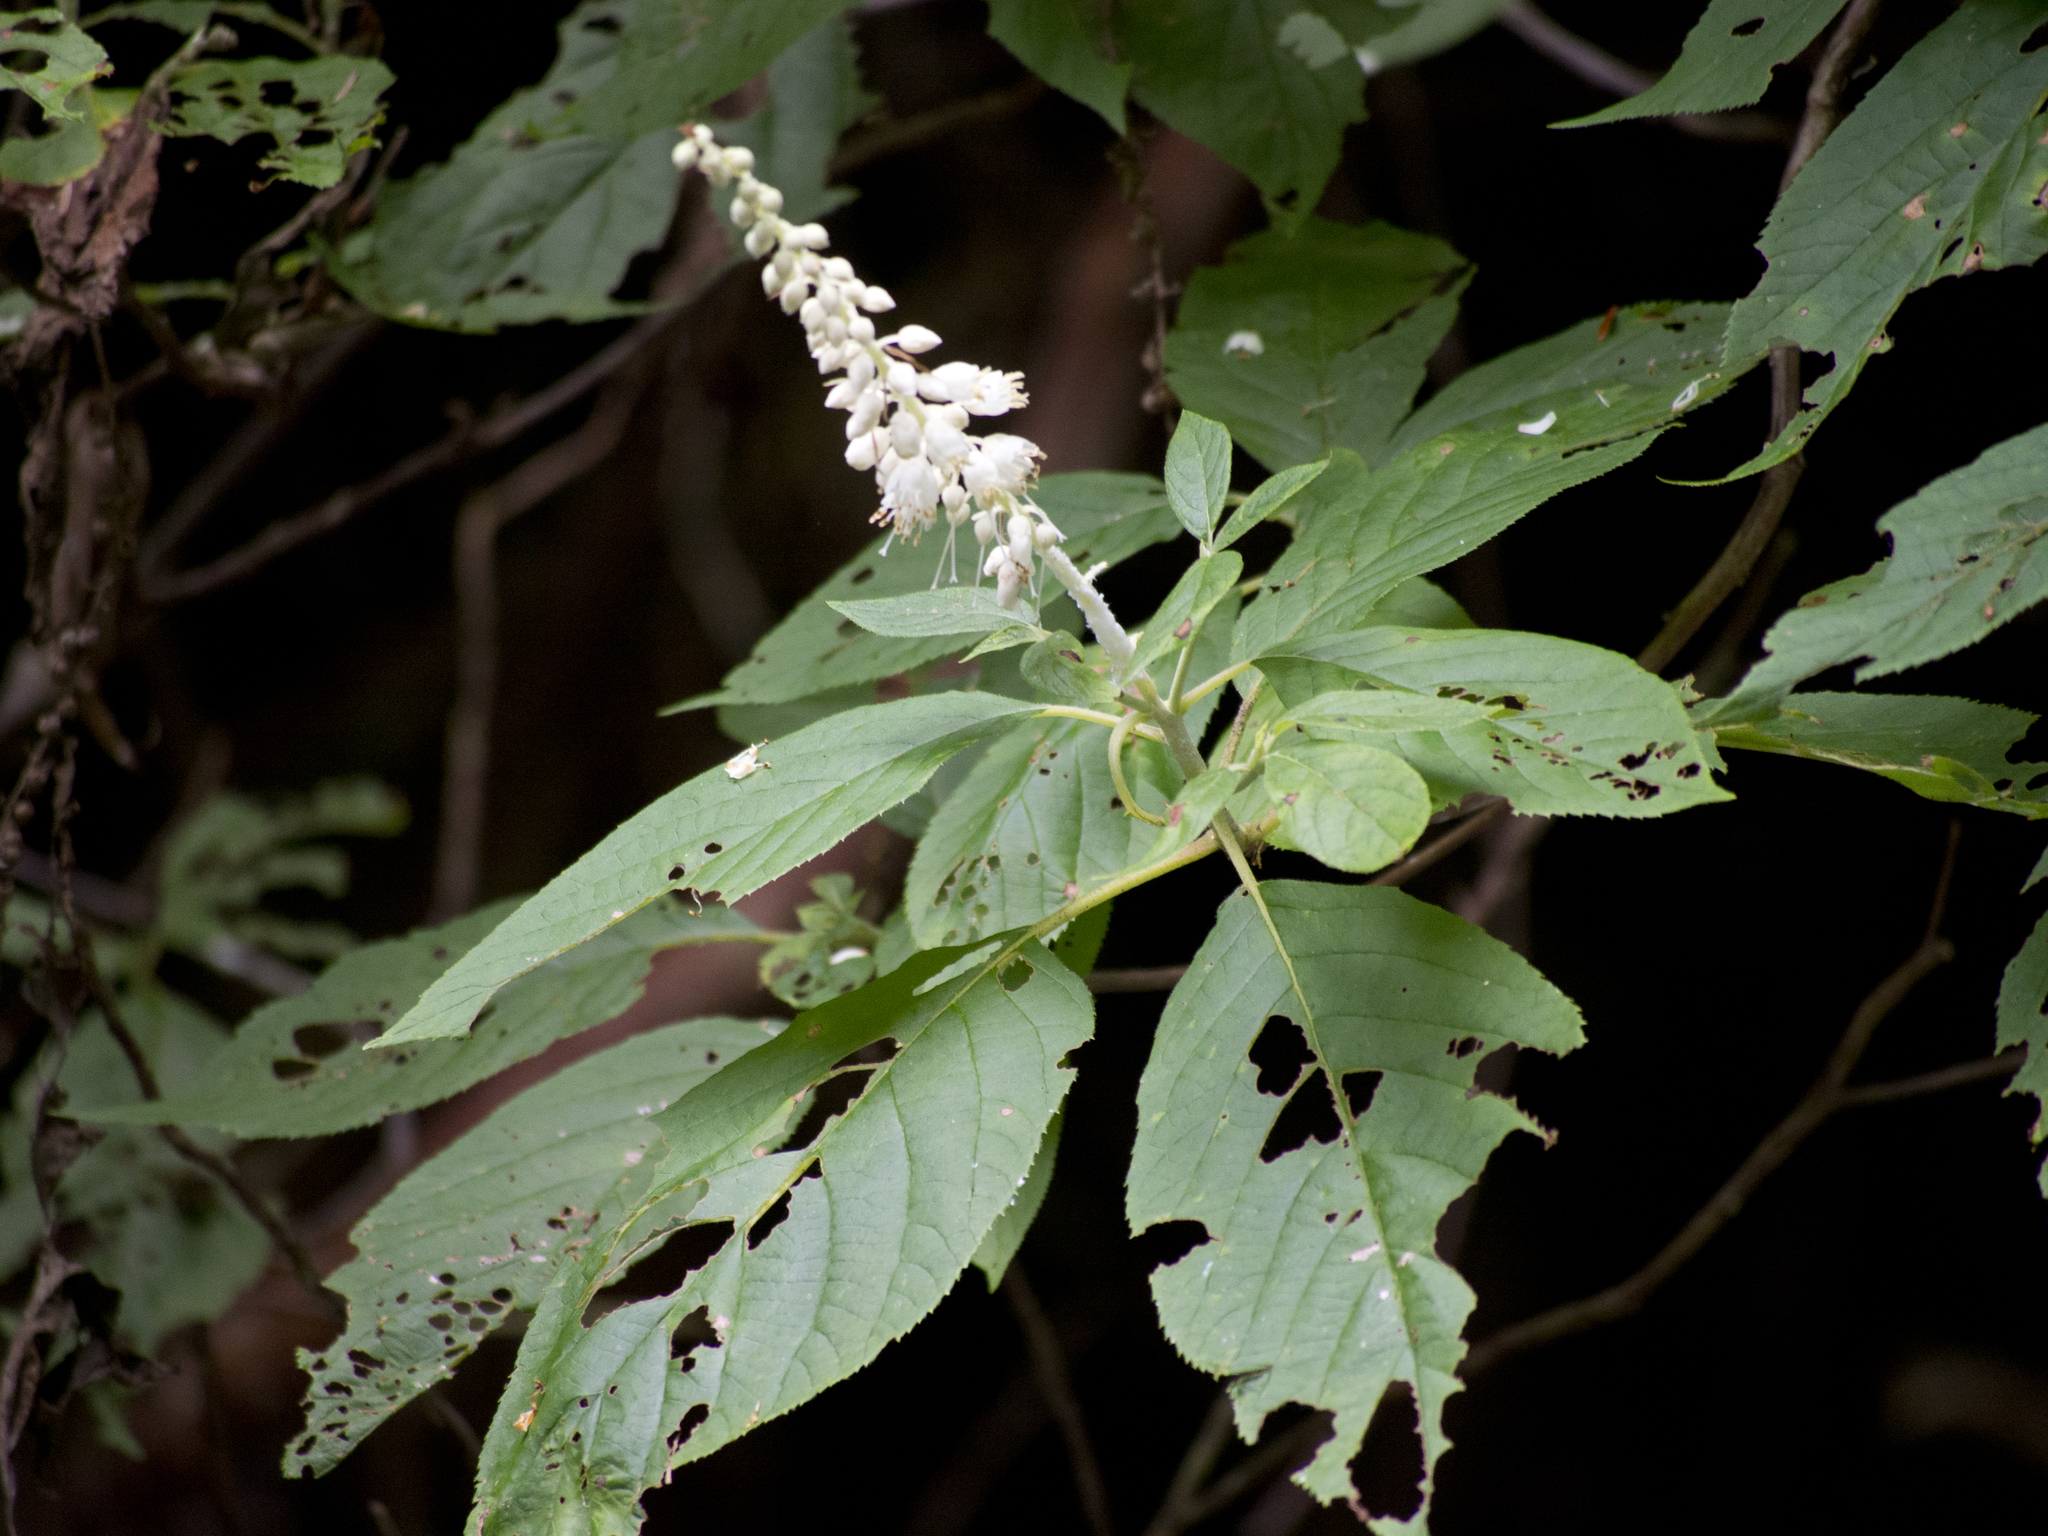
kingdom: Plantae
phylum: Tracheophyta
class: Magnoliopsida
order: Ericales
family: Clethraceae
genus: Clethra
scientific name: Clethra acuminata
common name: Mountain sweet pepperbush
